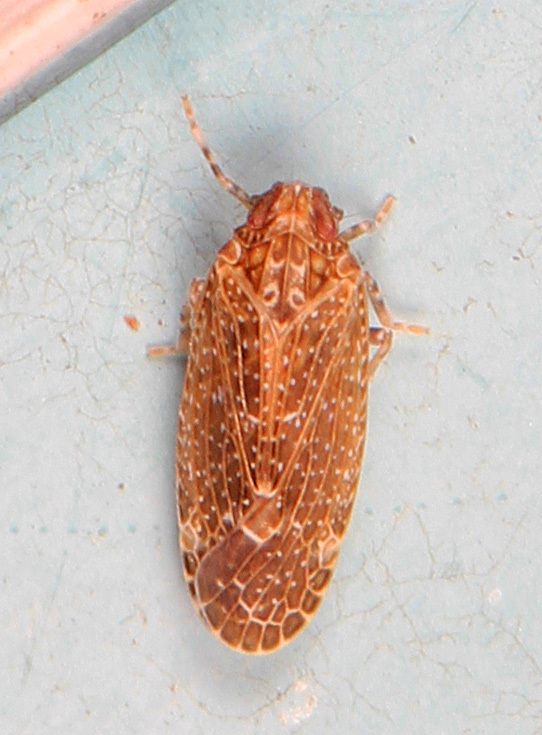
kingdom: Animalia
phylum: Arthropoda
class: Insecta
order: Hemiptera
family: Achilidae
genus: Opsiplanon
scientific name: Opsiplanon luellus
